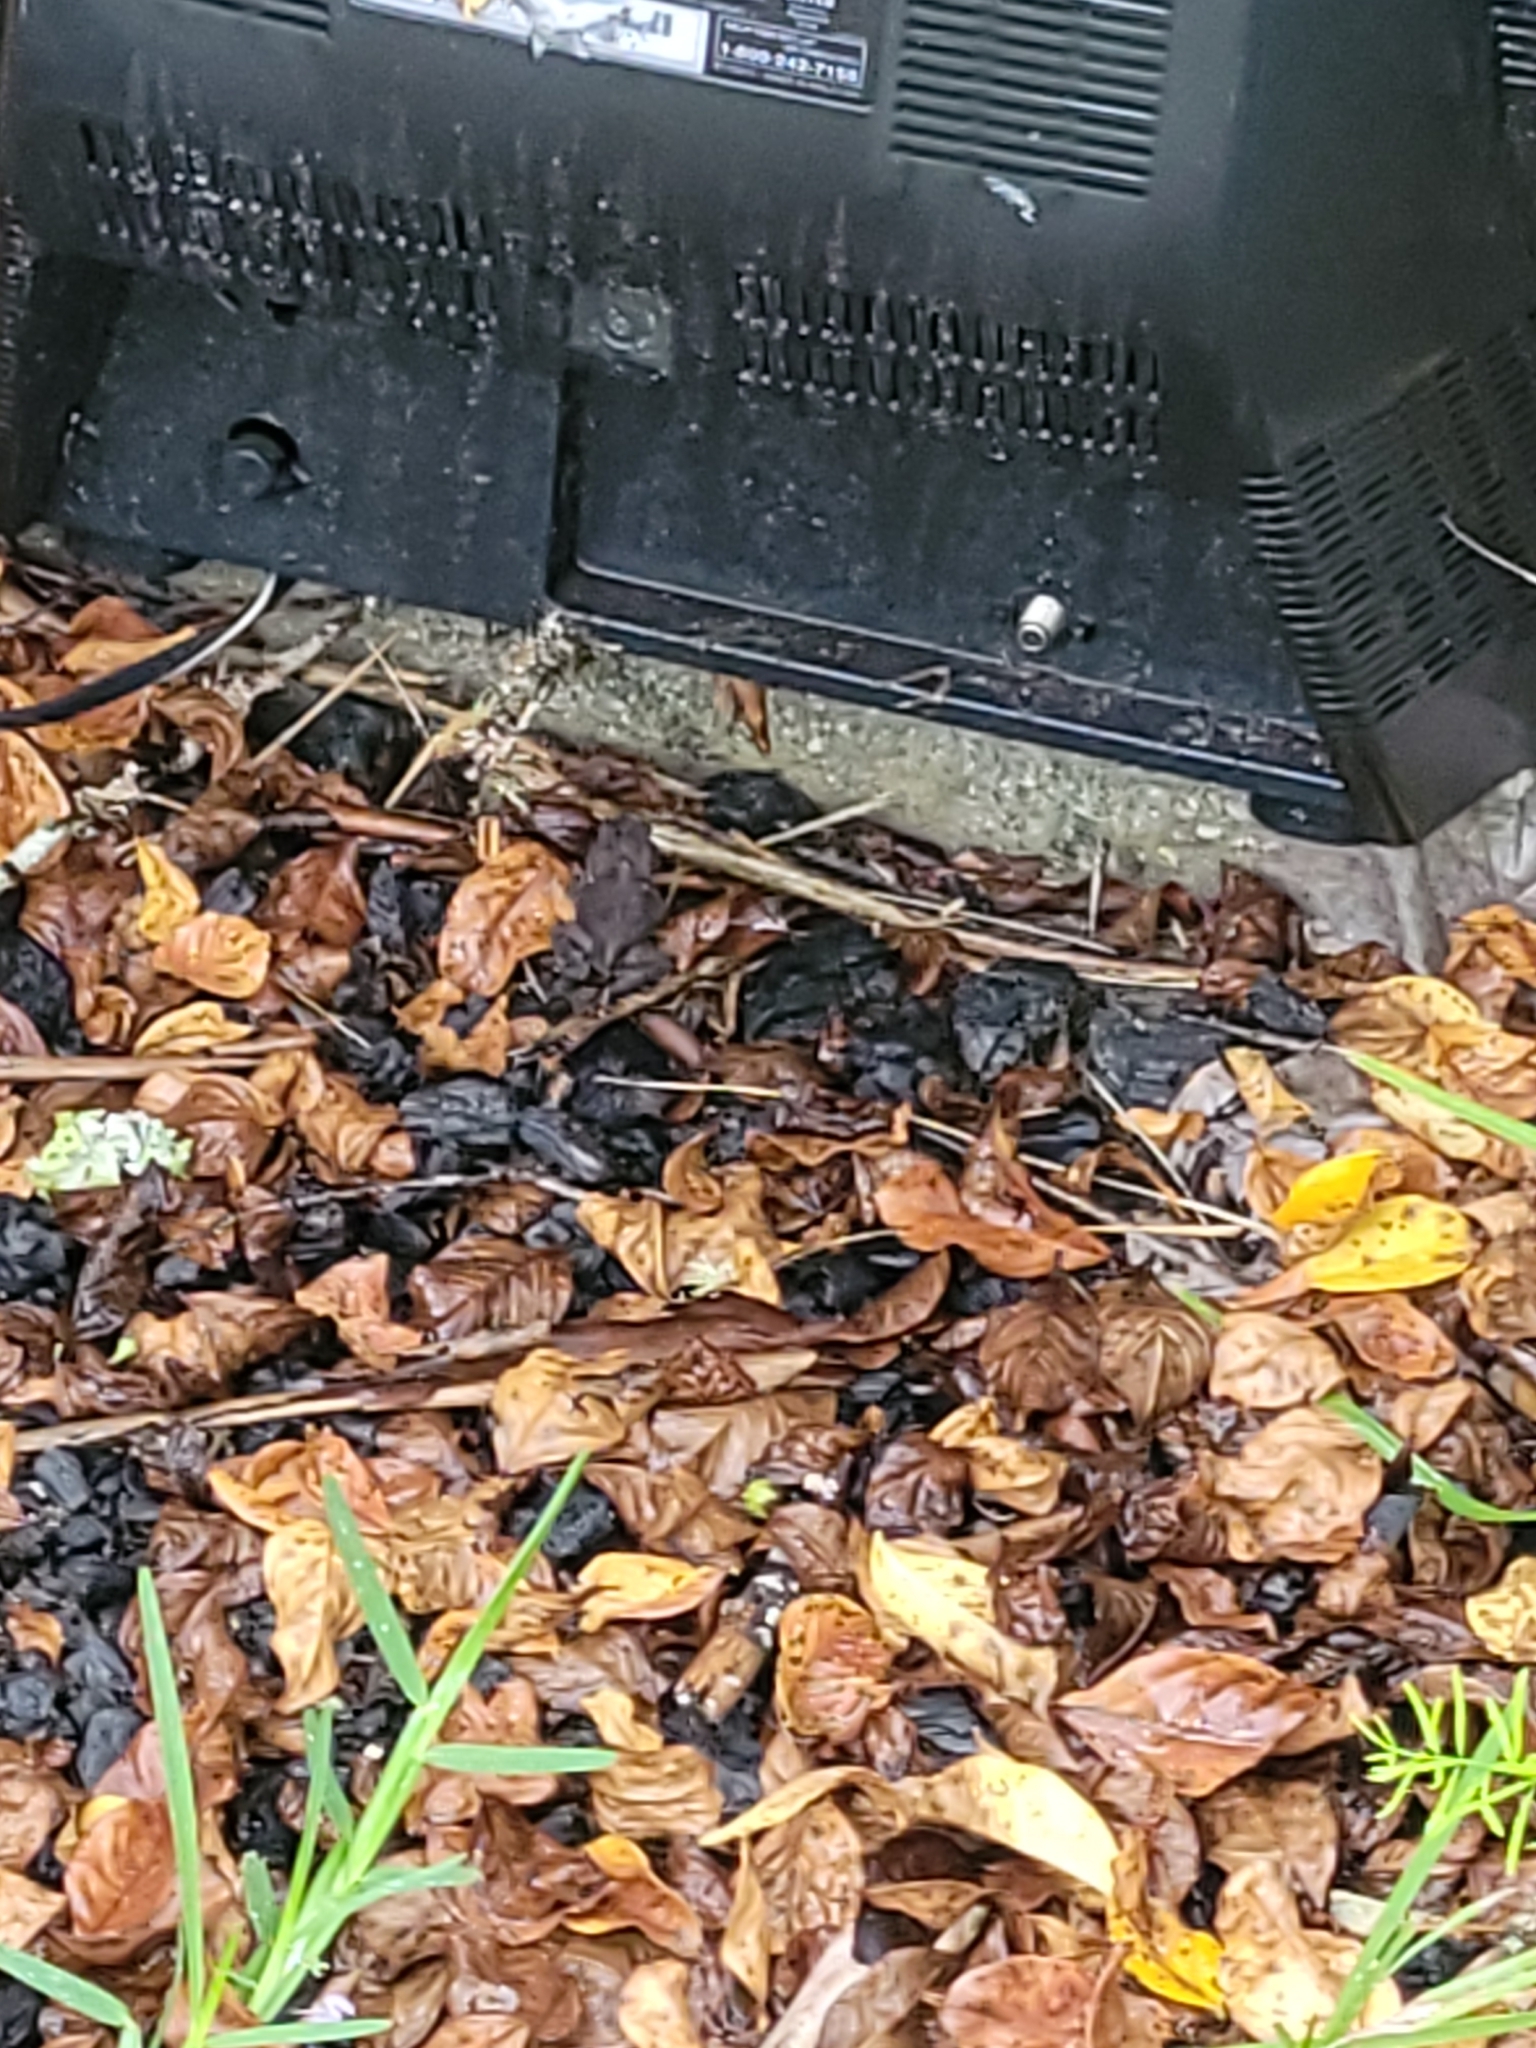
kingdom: Animalia
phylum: Chordata
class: Amphibia
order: Anura
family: Bufonidae
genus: Anaxyrus
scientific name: Anaxyrus terrestris
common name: Southern toad
